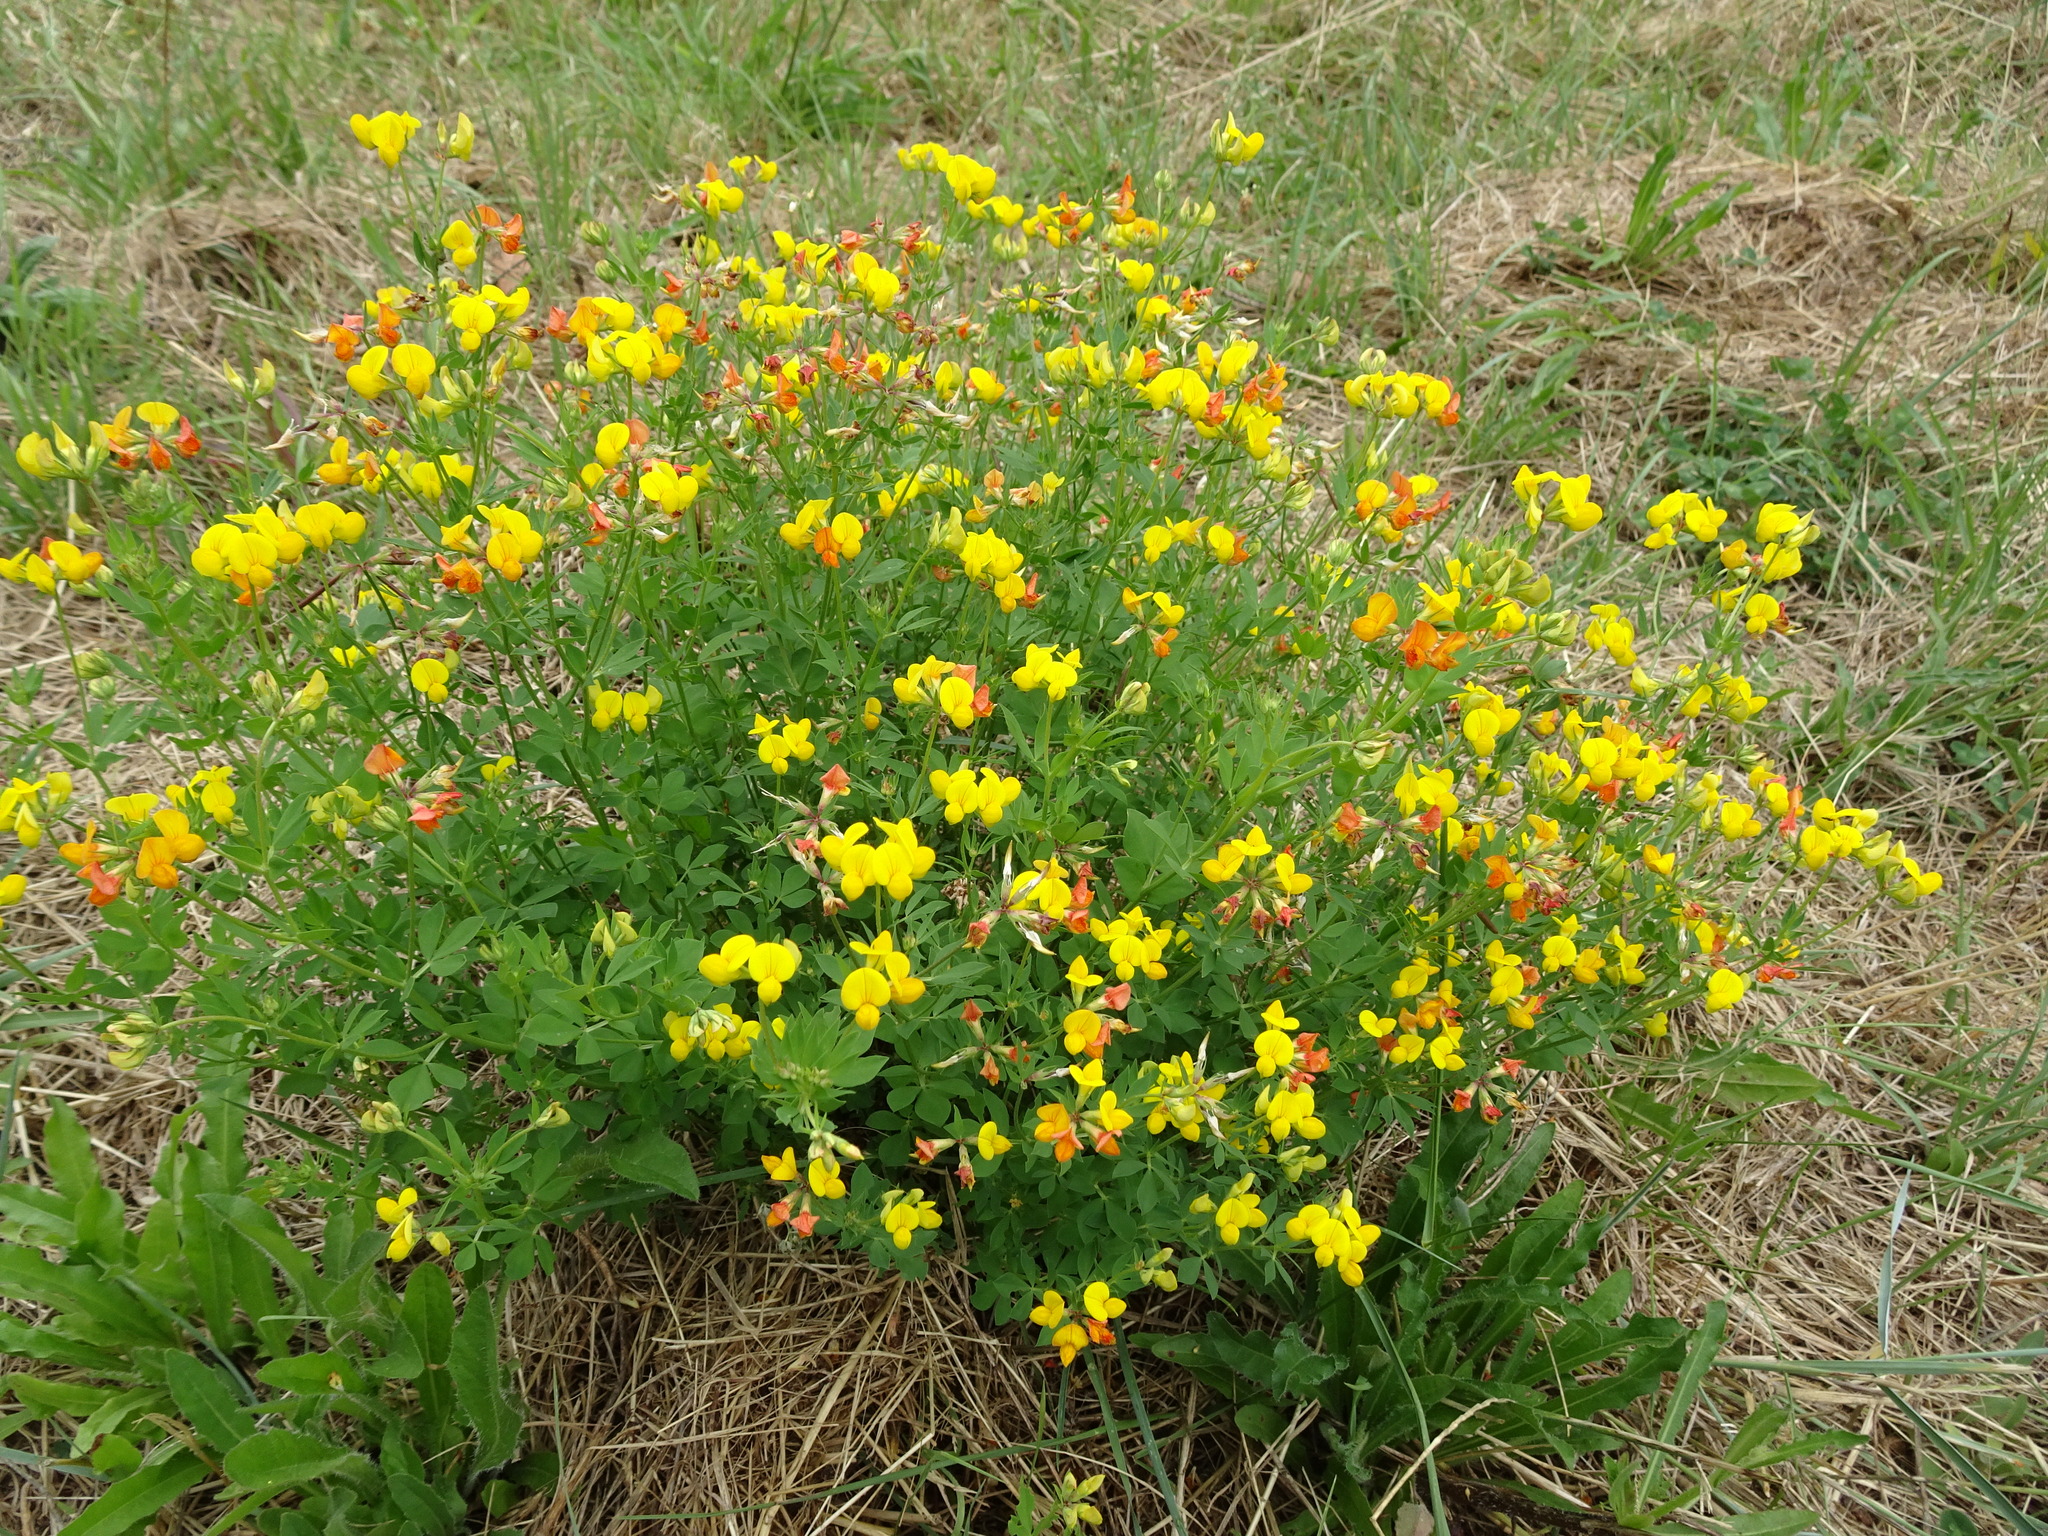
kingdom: Plantae
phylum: Tracheophyta
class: Magnoliopsida
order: Fabales
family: Fabaceae
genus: Lotus
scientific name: Lotus corniculatus
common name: Common bird's-foot-trefoil
